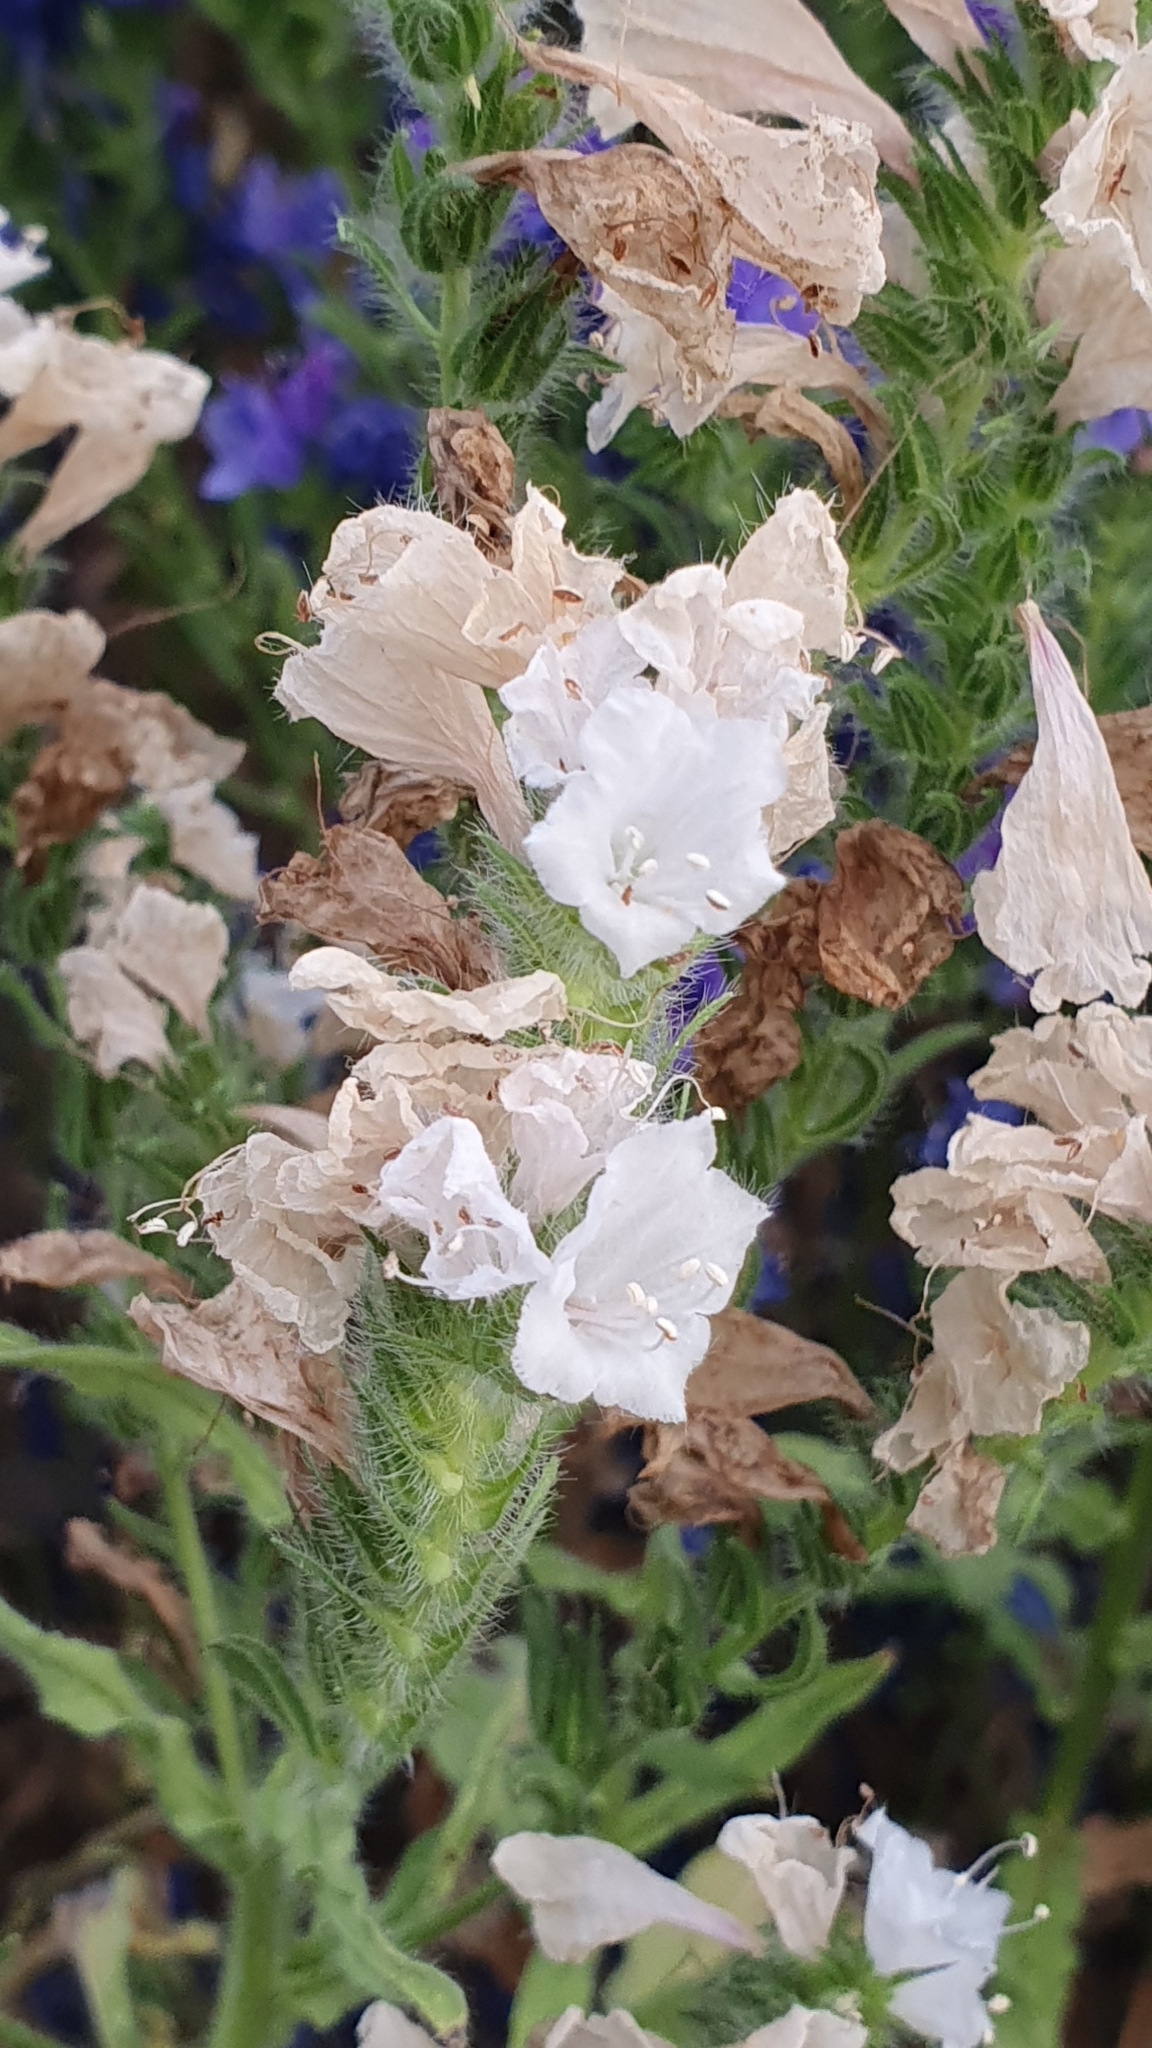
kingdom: Plantae
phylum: Tracheophyta
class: Magnoliopsida
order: Boraginales
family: Boraginaceae
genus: Echium
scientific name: Echium plantagineum
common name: Purple viper's-bugloss
